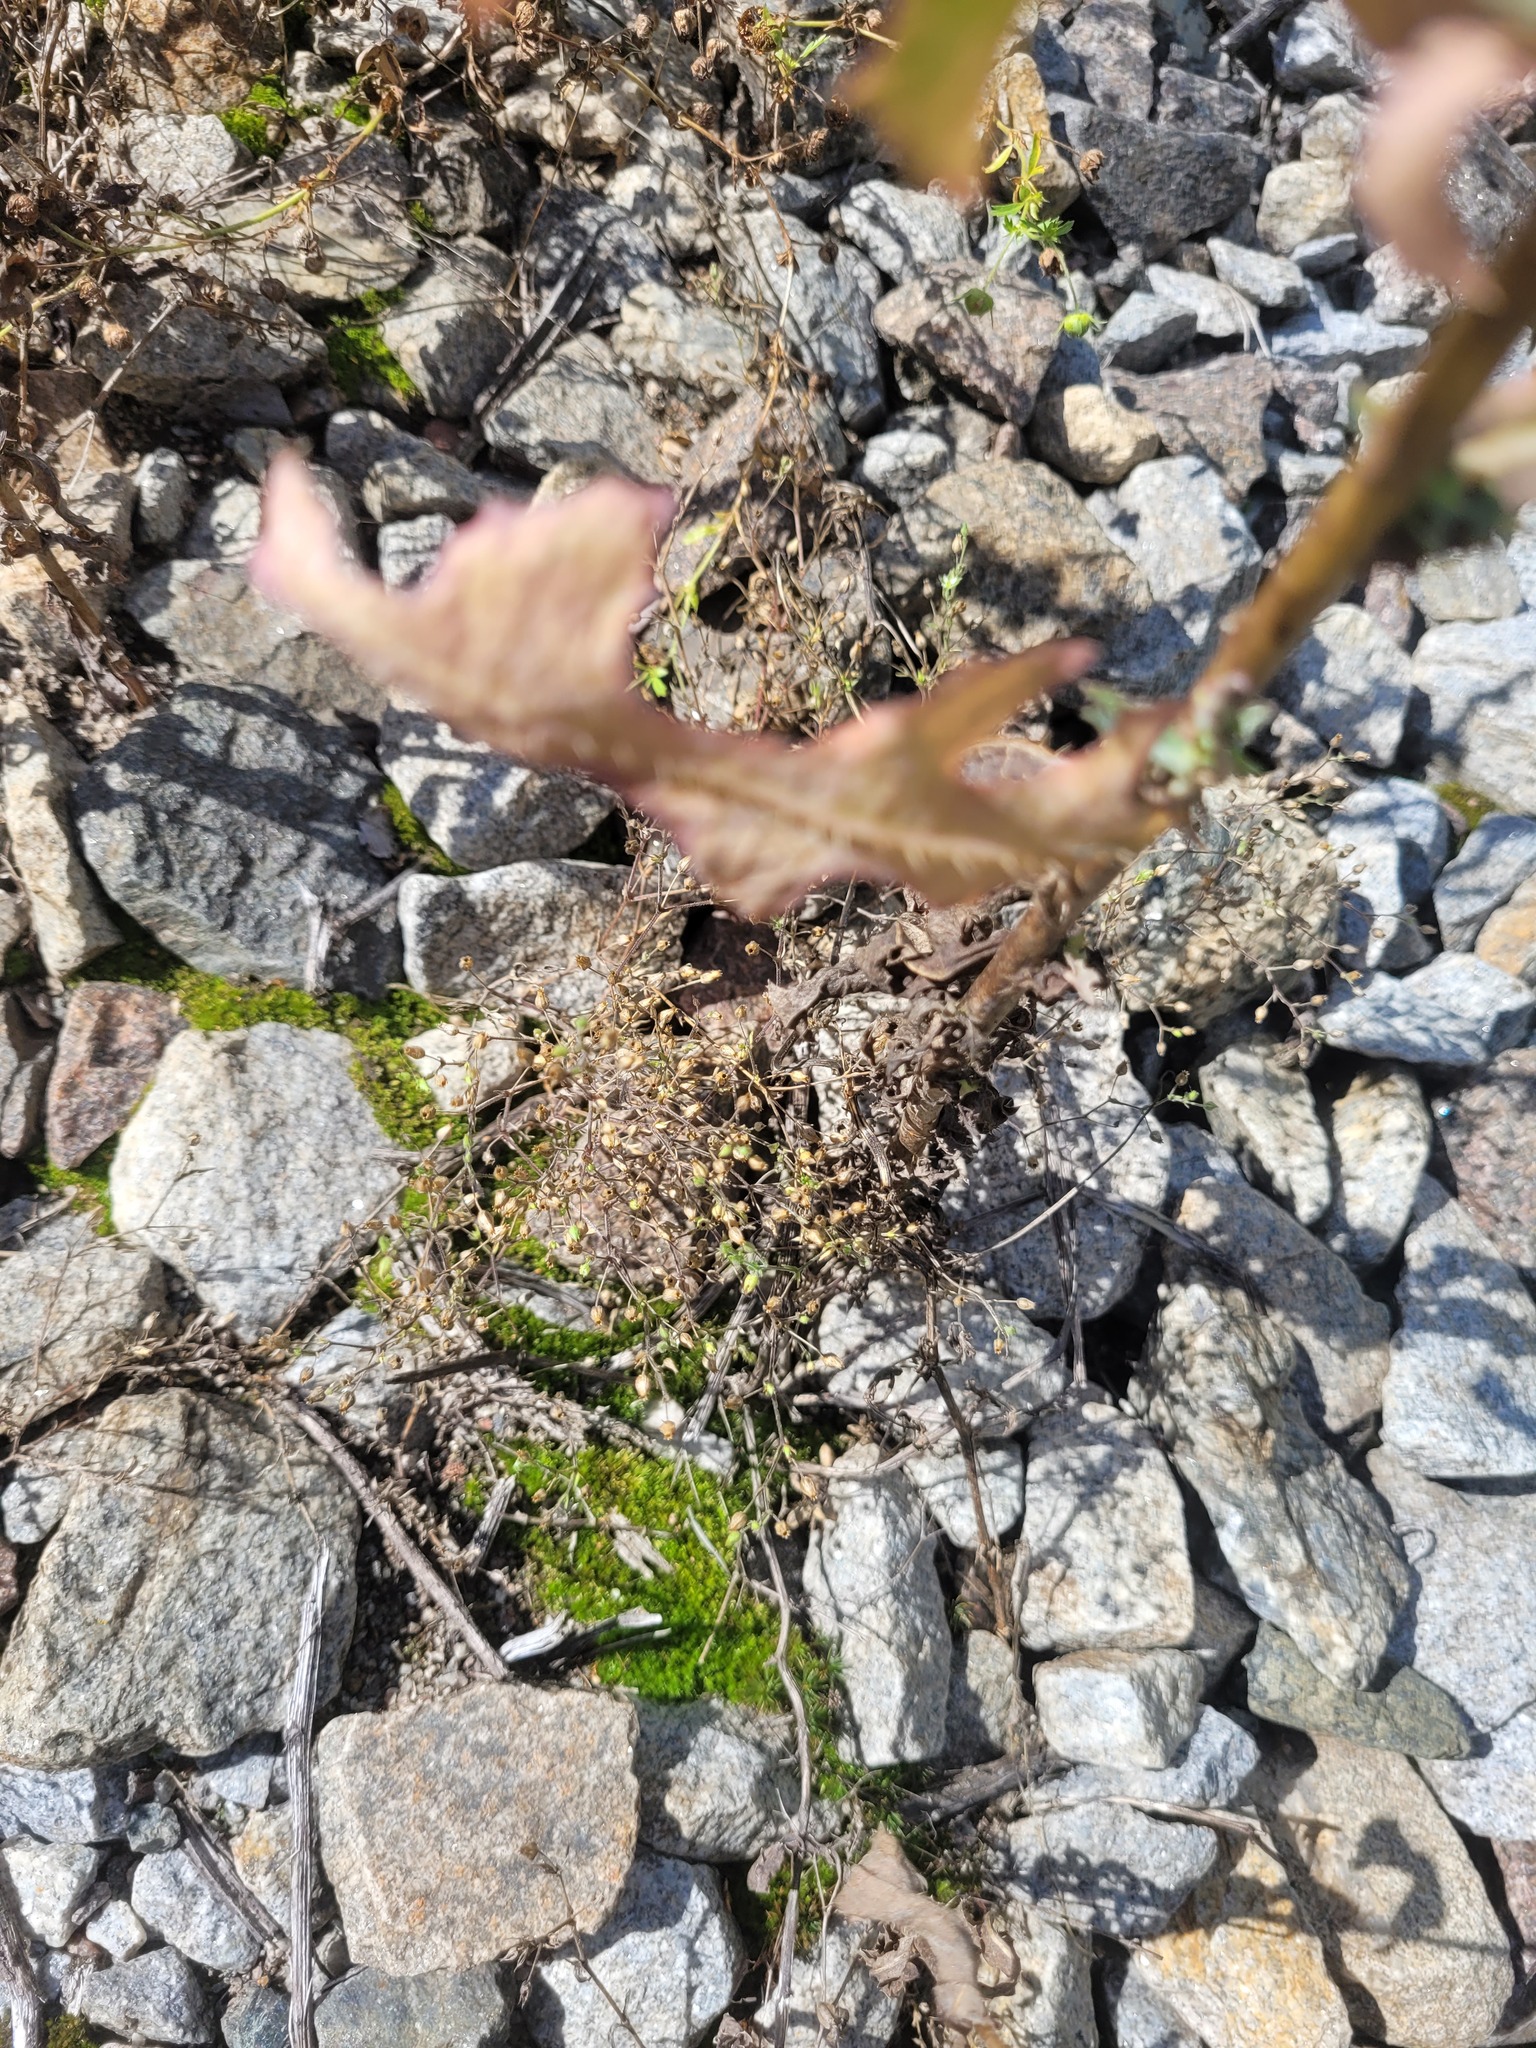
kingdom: Plantae
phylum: Tracheophyta
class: Magnoliopsida
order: Caryophyllales
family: Caryophyllaceae
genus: Arenaria
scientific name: Arenaria serpyllifolia
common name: Thyme-leaved sandwort
